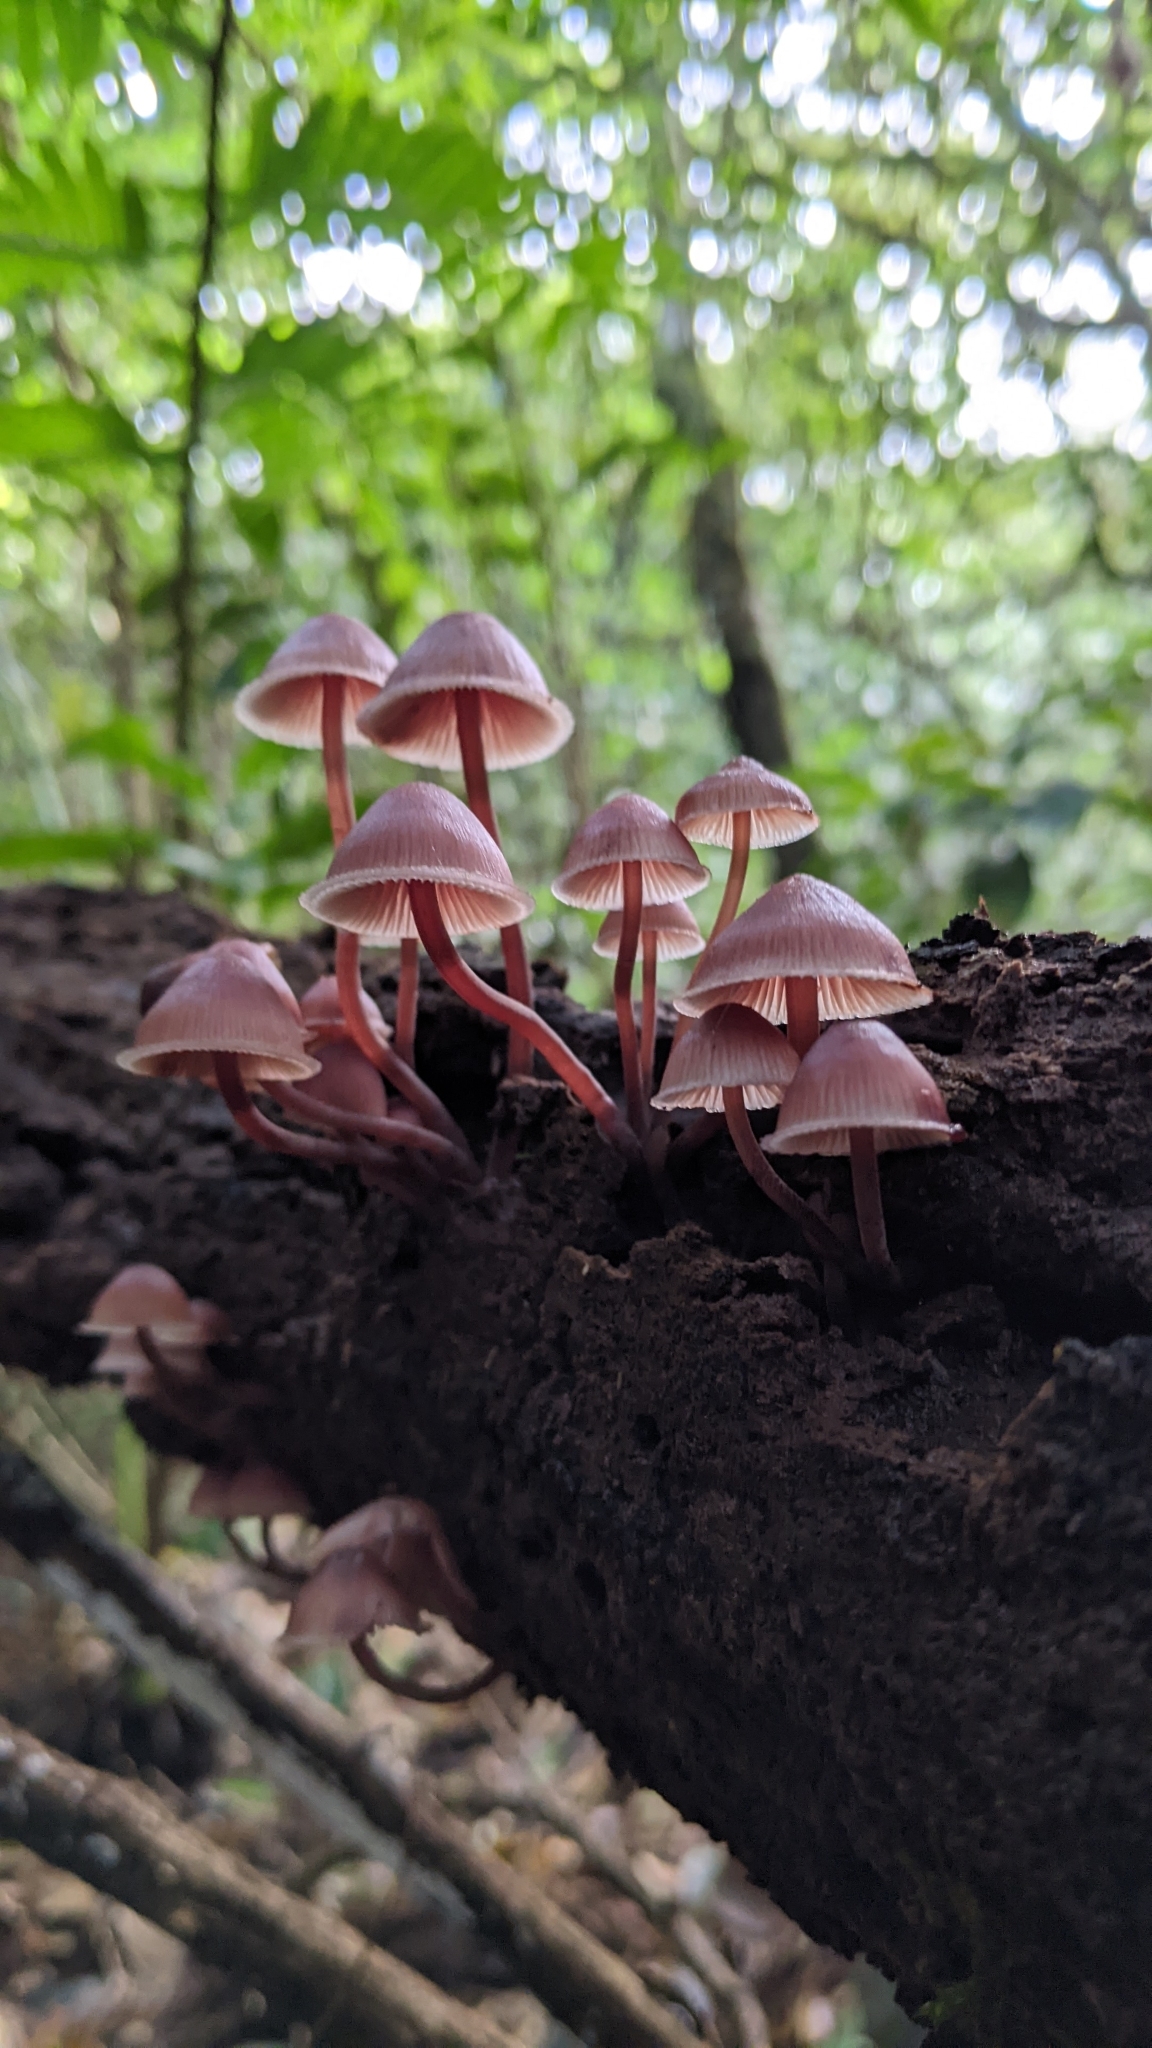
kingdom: Fungi
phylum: Basidiomycota
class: Agaricomycetes
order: Agaricales
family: Mycenaceae
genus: Mycena
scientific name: Mycena haematopus
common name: Burgundydrop bonnet
